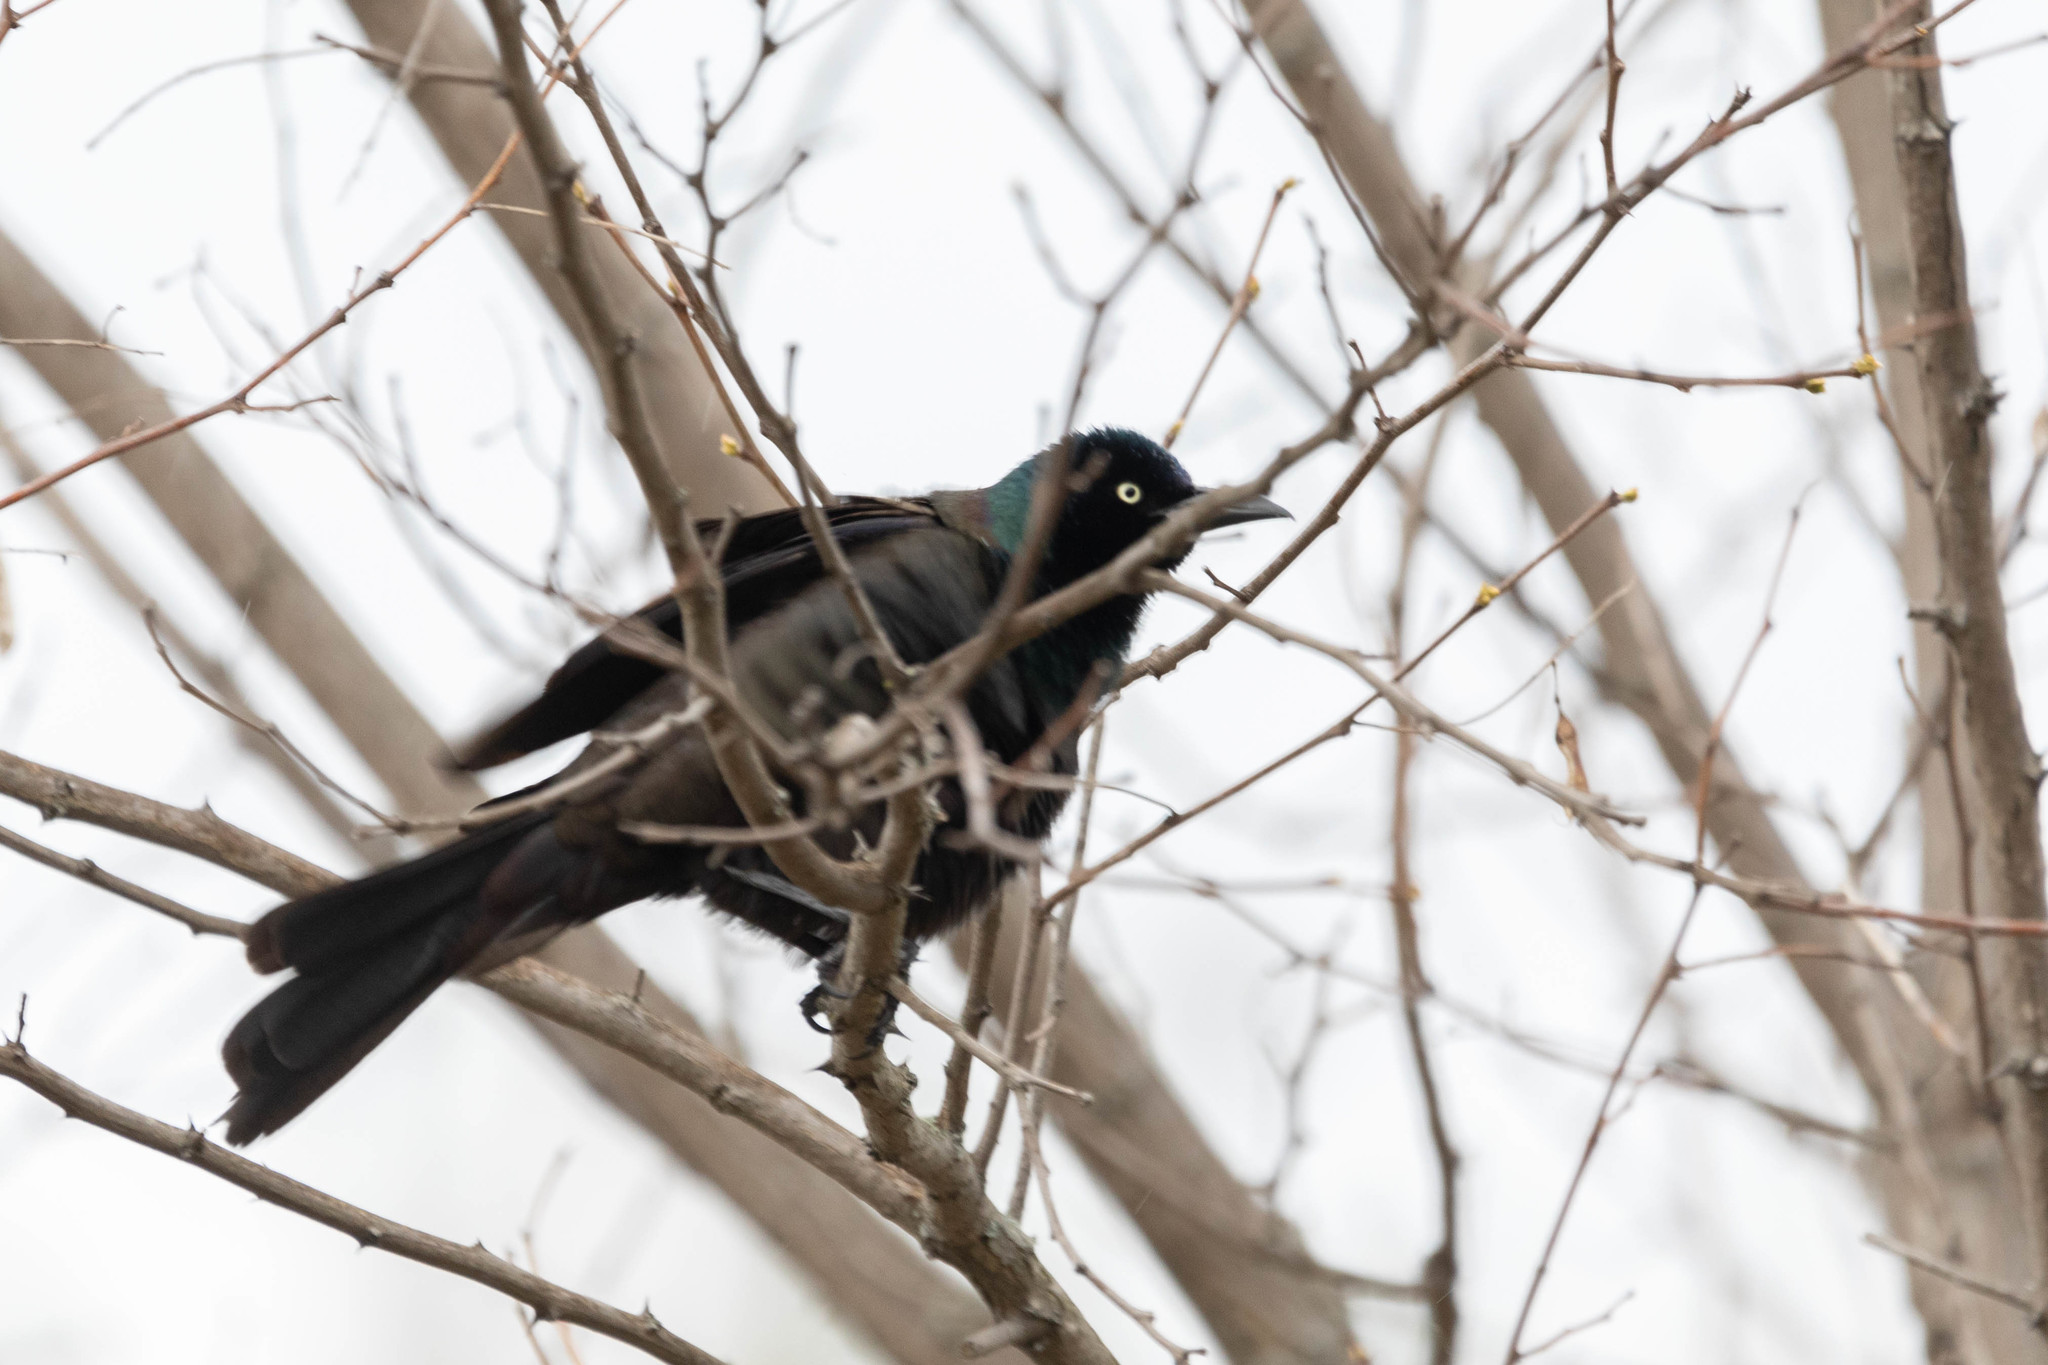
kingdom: Animalia
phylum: Chordata
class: Aves
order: Passeriformes
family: Icteridae
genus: Quiscalus
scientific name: Quiscalus quiscula
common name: Common grackle
